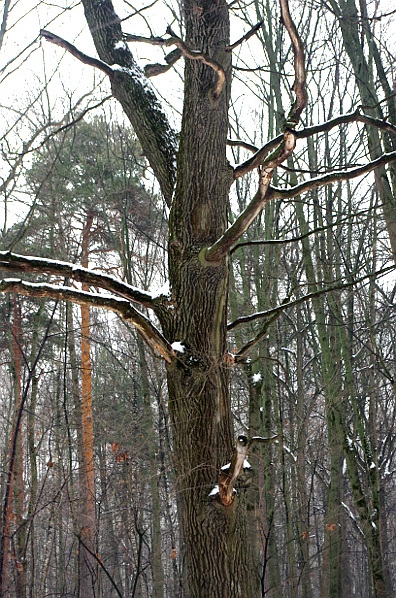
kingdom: Plantae
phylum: Tracheophyta
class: Magnoliopsida
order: Fagales
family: Fagaceae
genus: Quercus
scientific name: Quercus robur
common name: Pedunculate oak
